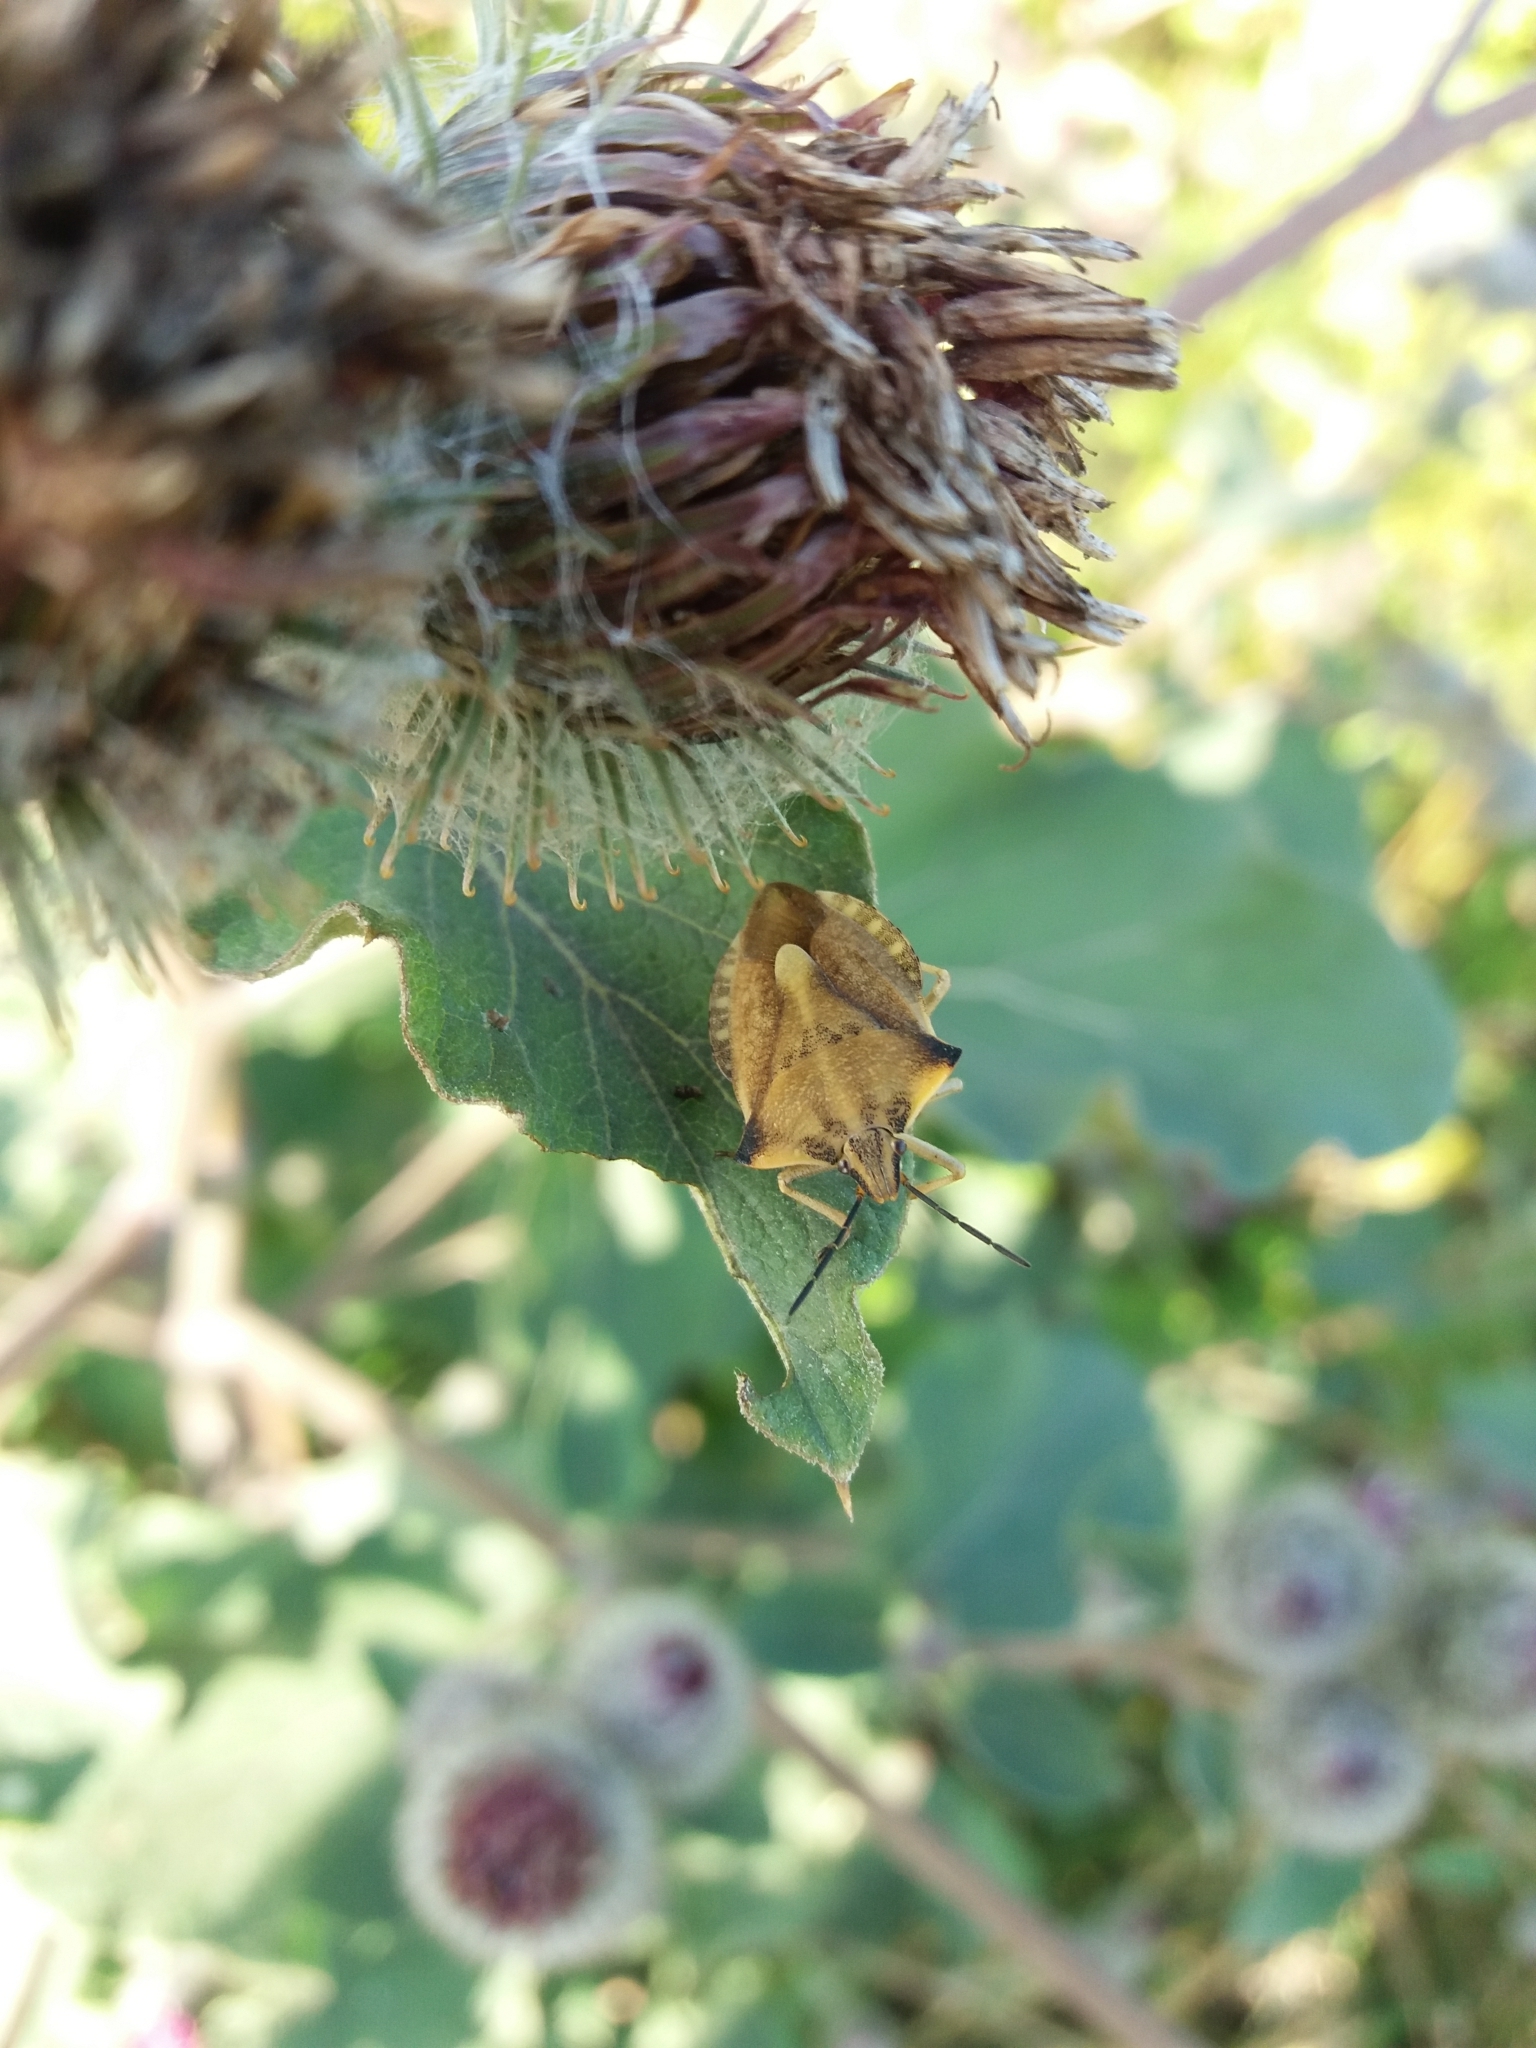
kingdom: Animalia
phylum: Arthropoda
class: Insecta
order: Hemiptera
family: Pentatomidae
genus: Carpocoris
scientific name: Carpocoris fuscispinus
